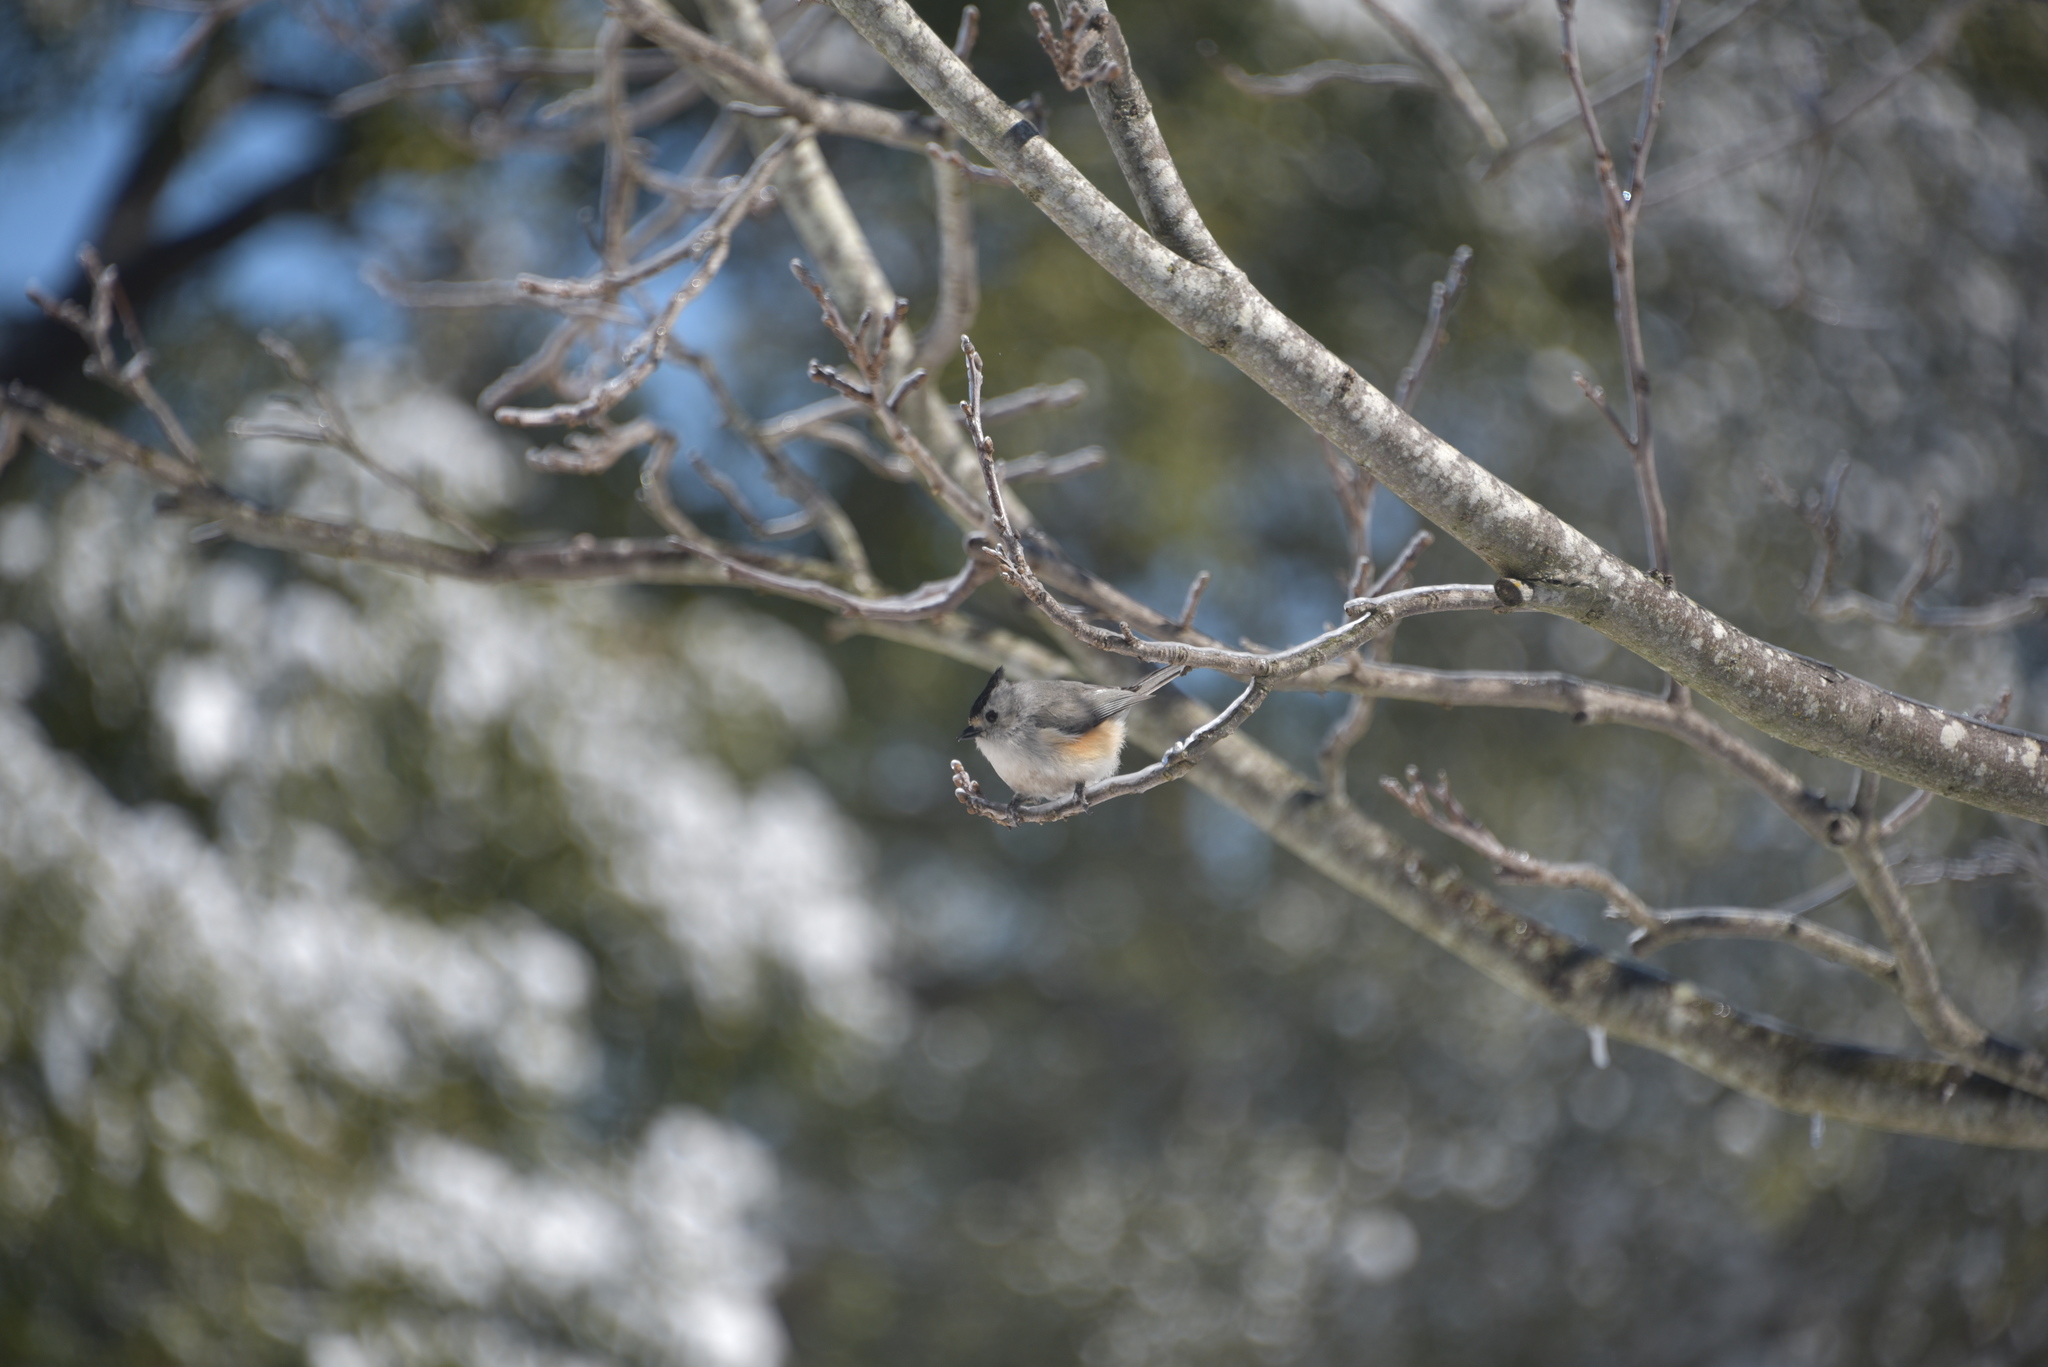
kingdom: Animalia
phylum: Chordata
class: Aves
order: Passeriformes
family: Paridae
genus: Baeolophus
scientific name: Baeolophus atricristatus
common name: Black-crested titmouse
